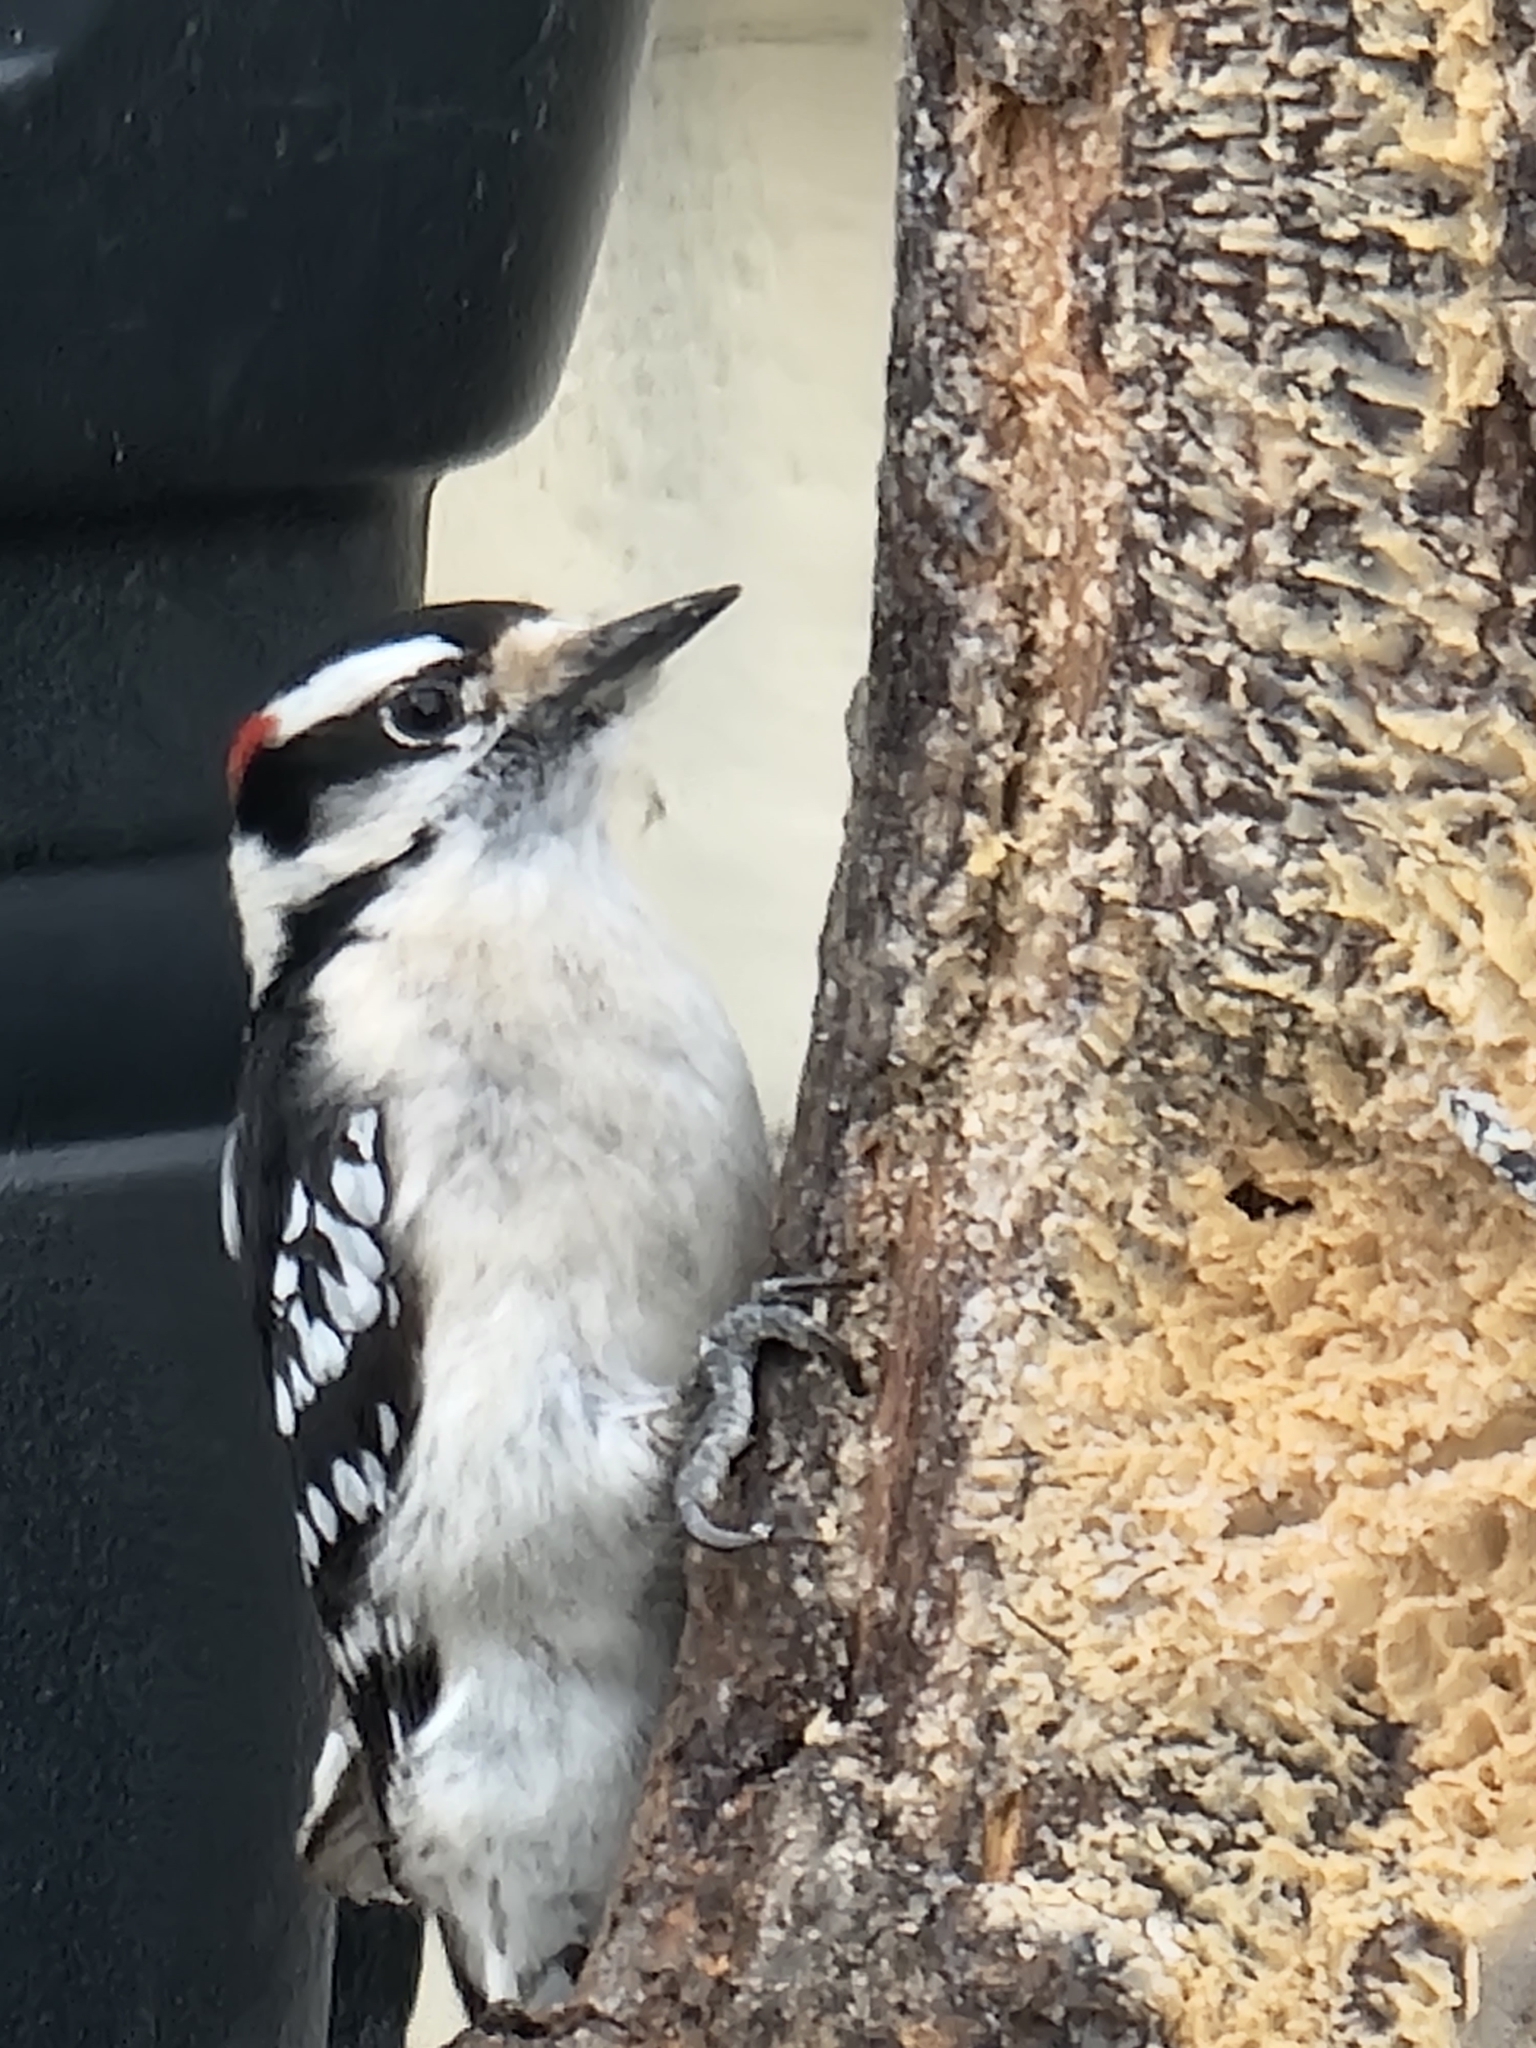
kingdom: Animalia
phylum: Chordata
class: Aves
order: Piciformes
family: Picidae
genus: Dryobates
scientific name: Dryobates pubescens
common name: Downy woodpecker
